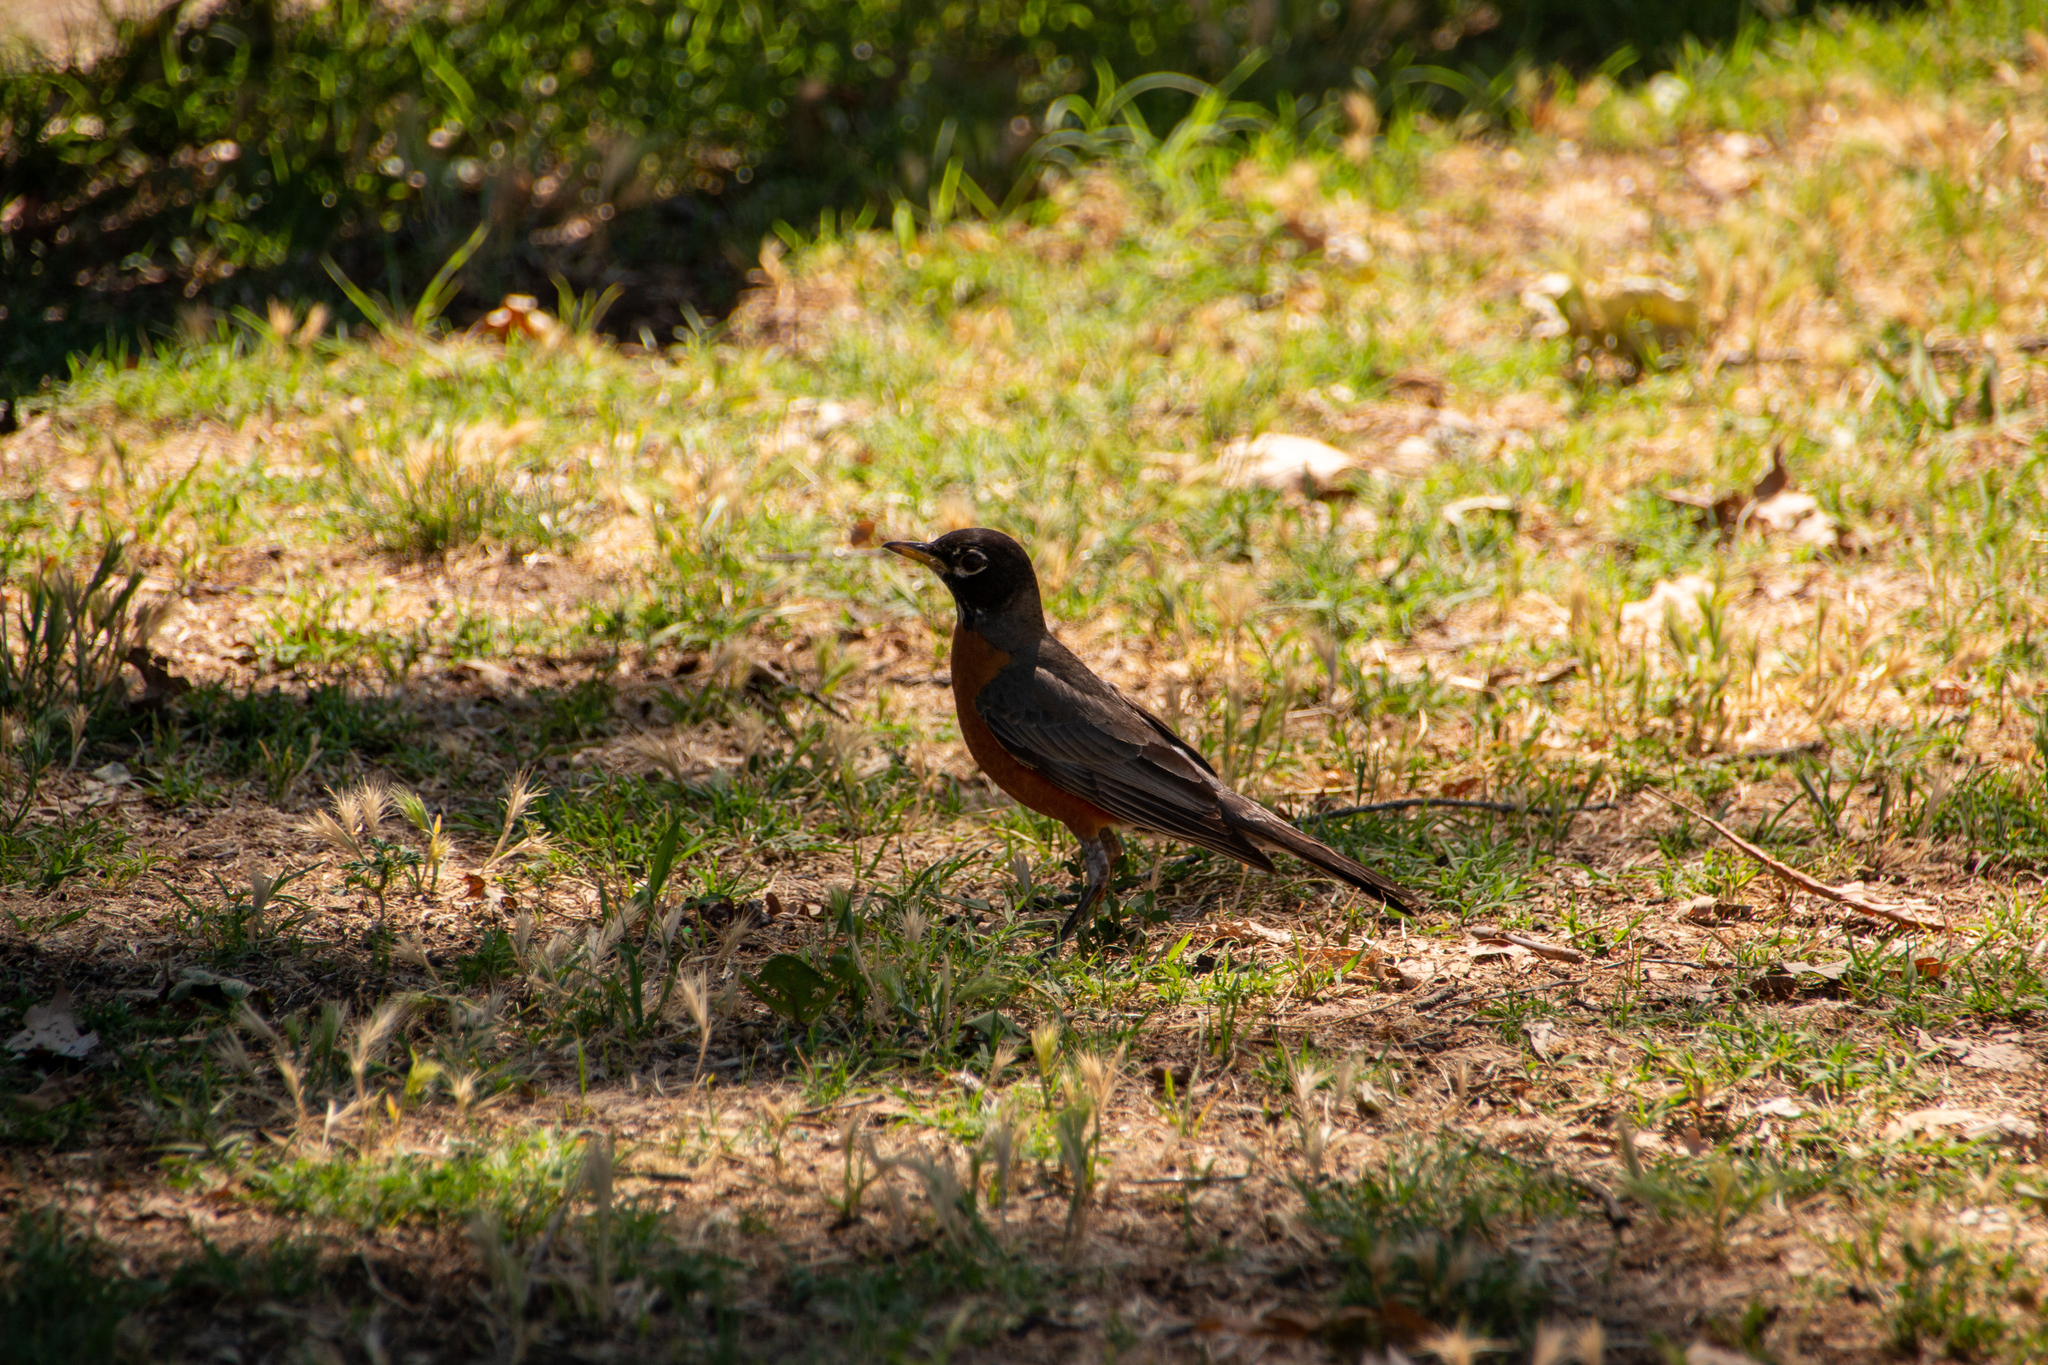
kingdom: Animalia
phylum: Chordata
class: Aves
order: Passeriformes
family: Turdidae
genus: Turdus
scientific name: Turdus migratorius
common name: American robin
